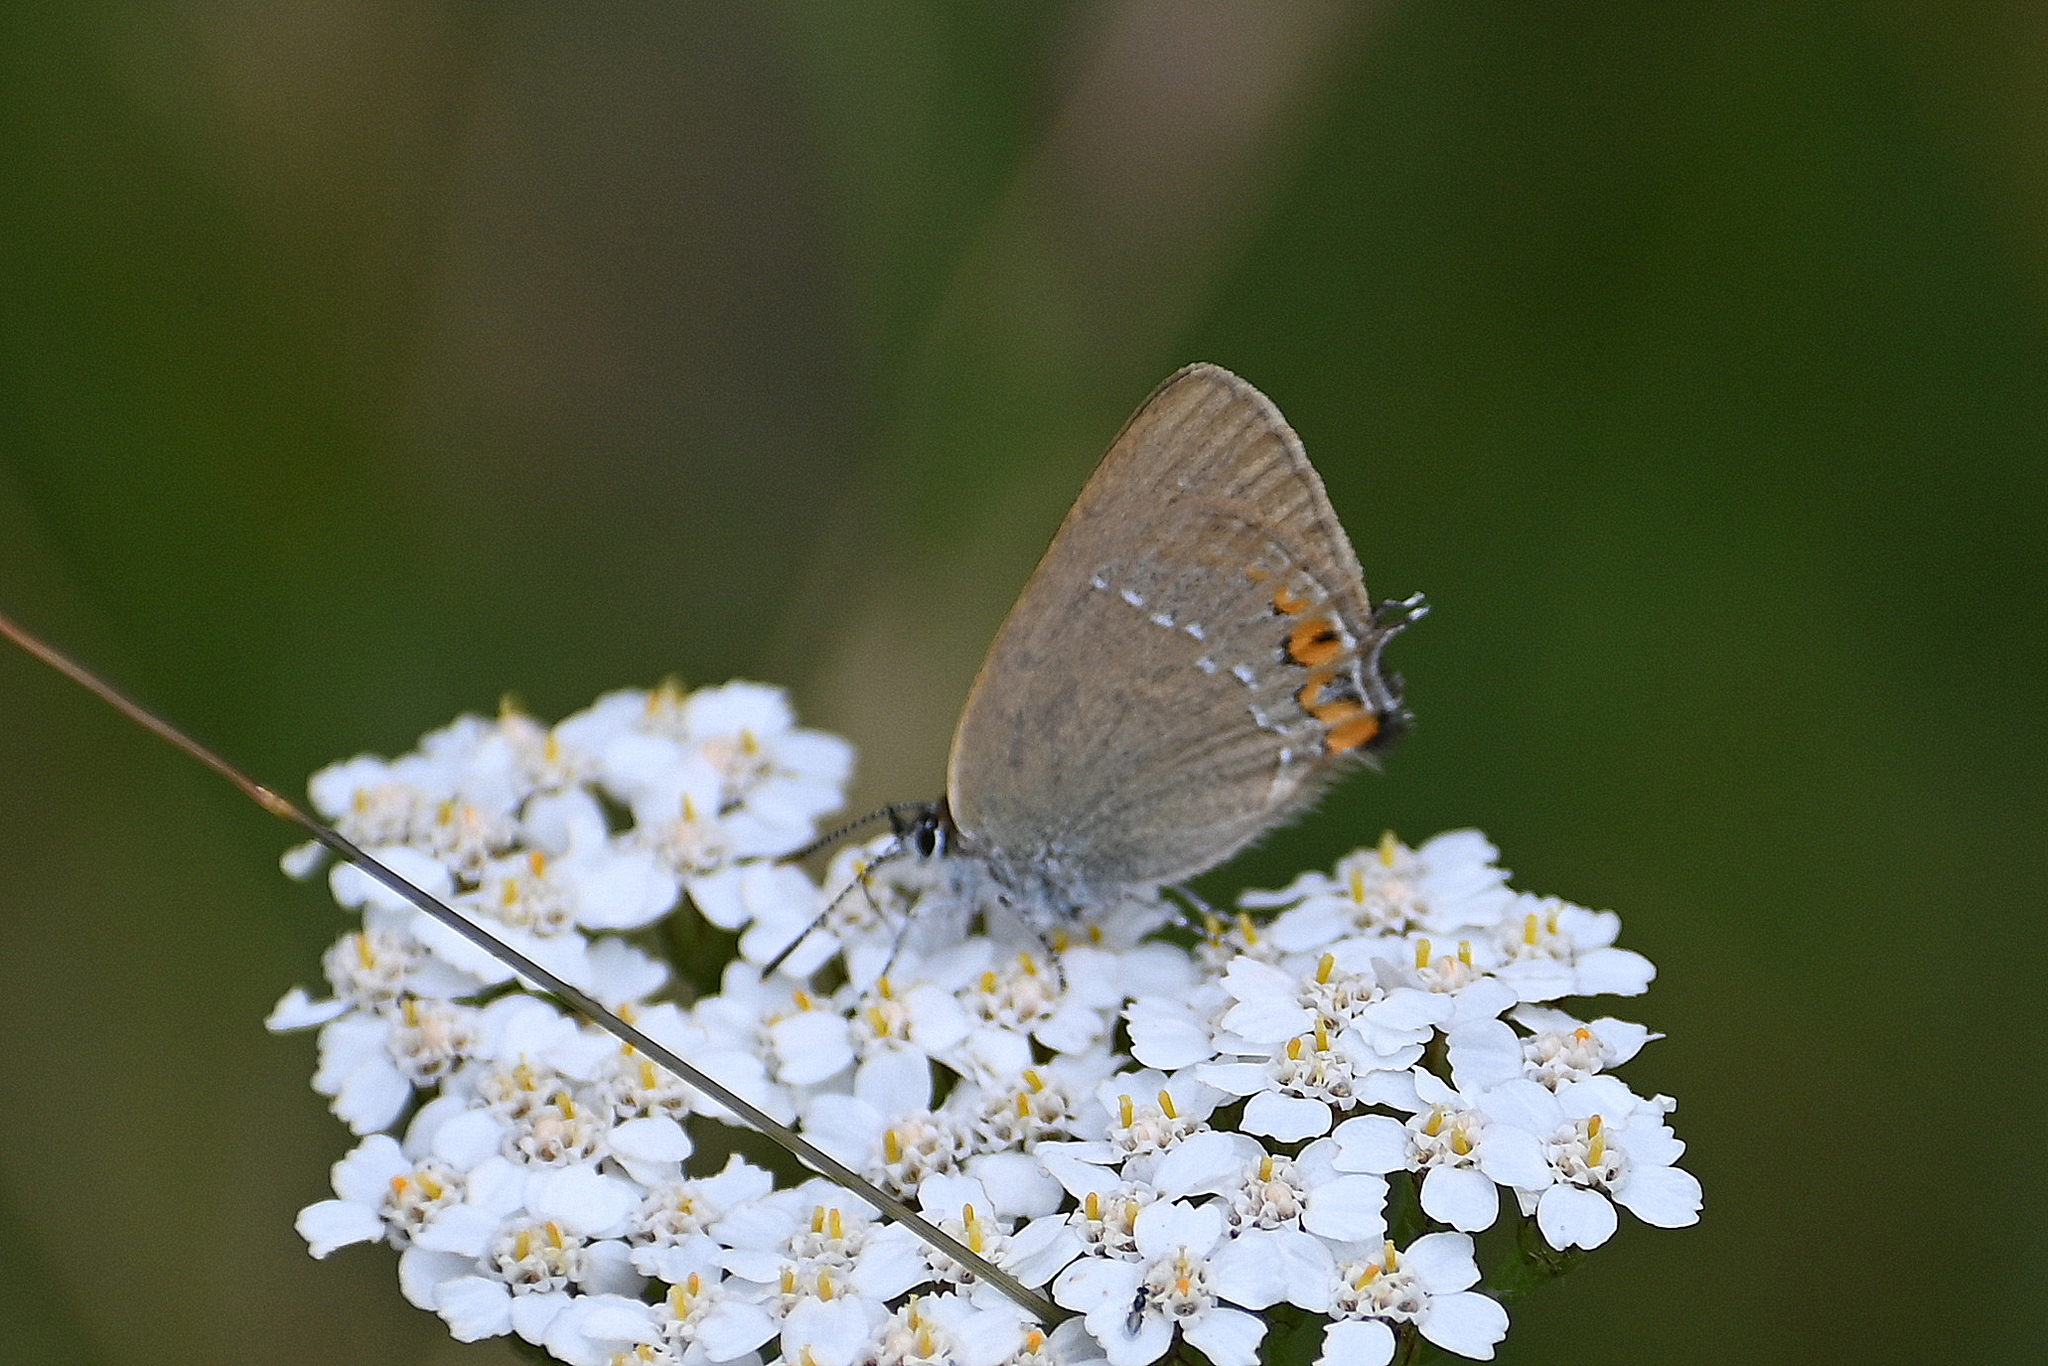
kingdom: Animalia
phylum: Arthropoda
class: Insecta
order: Lepidoptera
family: Lycaenidae
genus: Strymon
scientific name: Strymon acaciae
